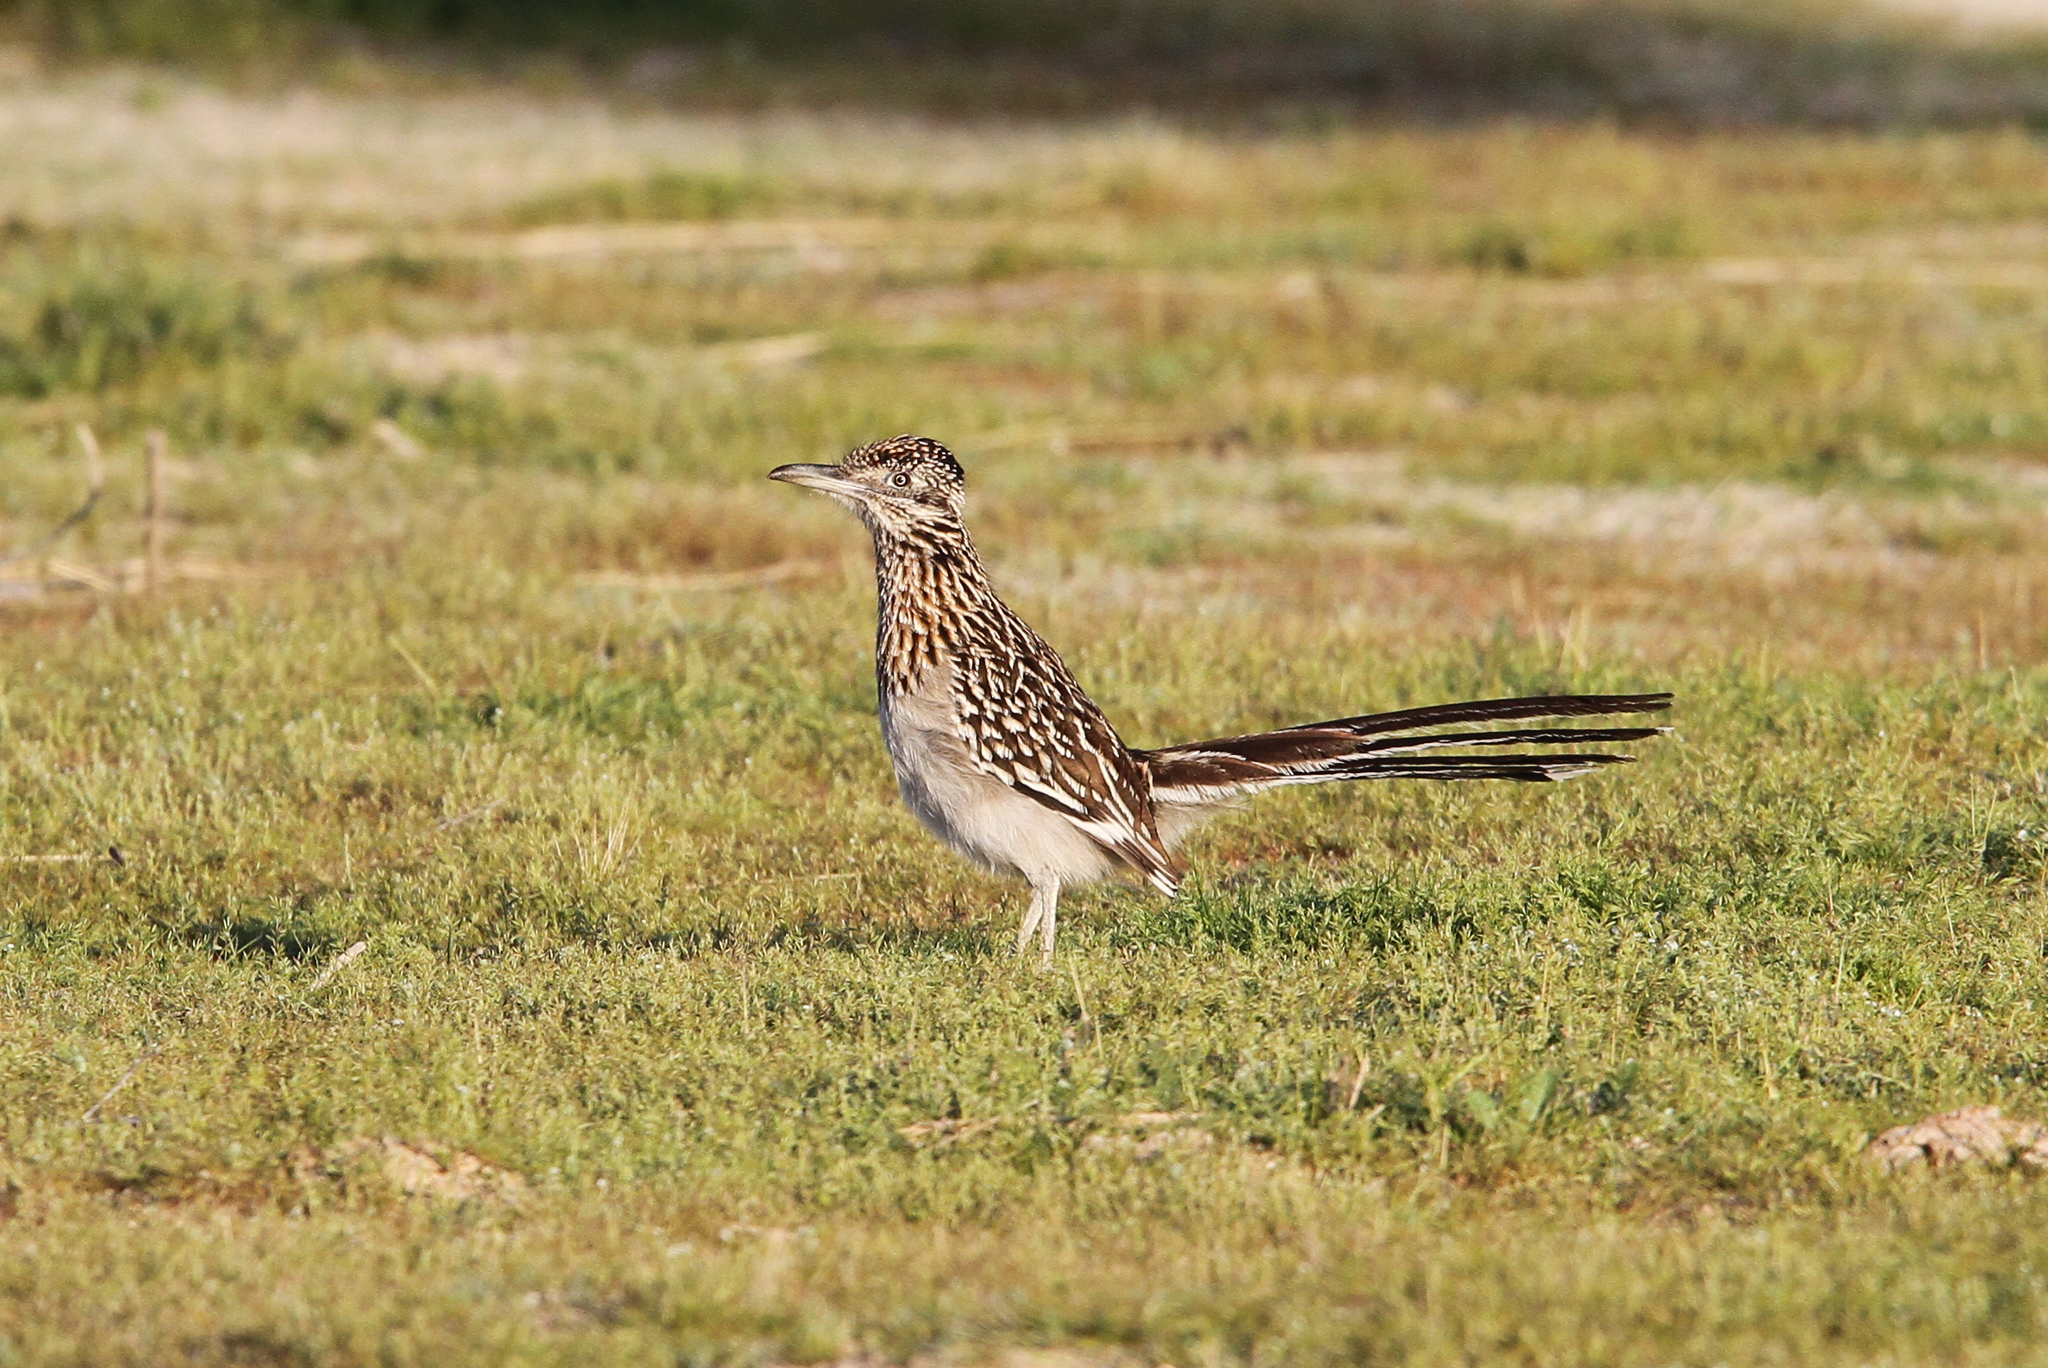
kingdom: Animalia
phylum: Chordata
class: Aves
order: Cuculiformes
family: Cuculidae
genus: Geococcyx
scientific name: Geococcyx californianus
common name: Greater roadrunner
